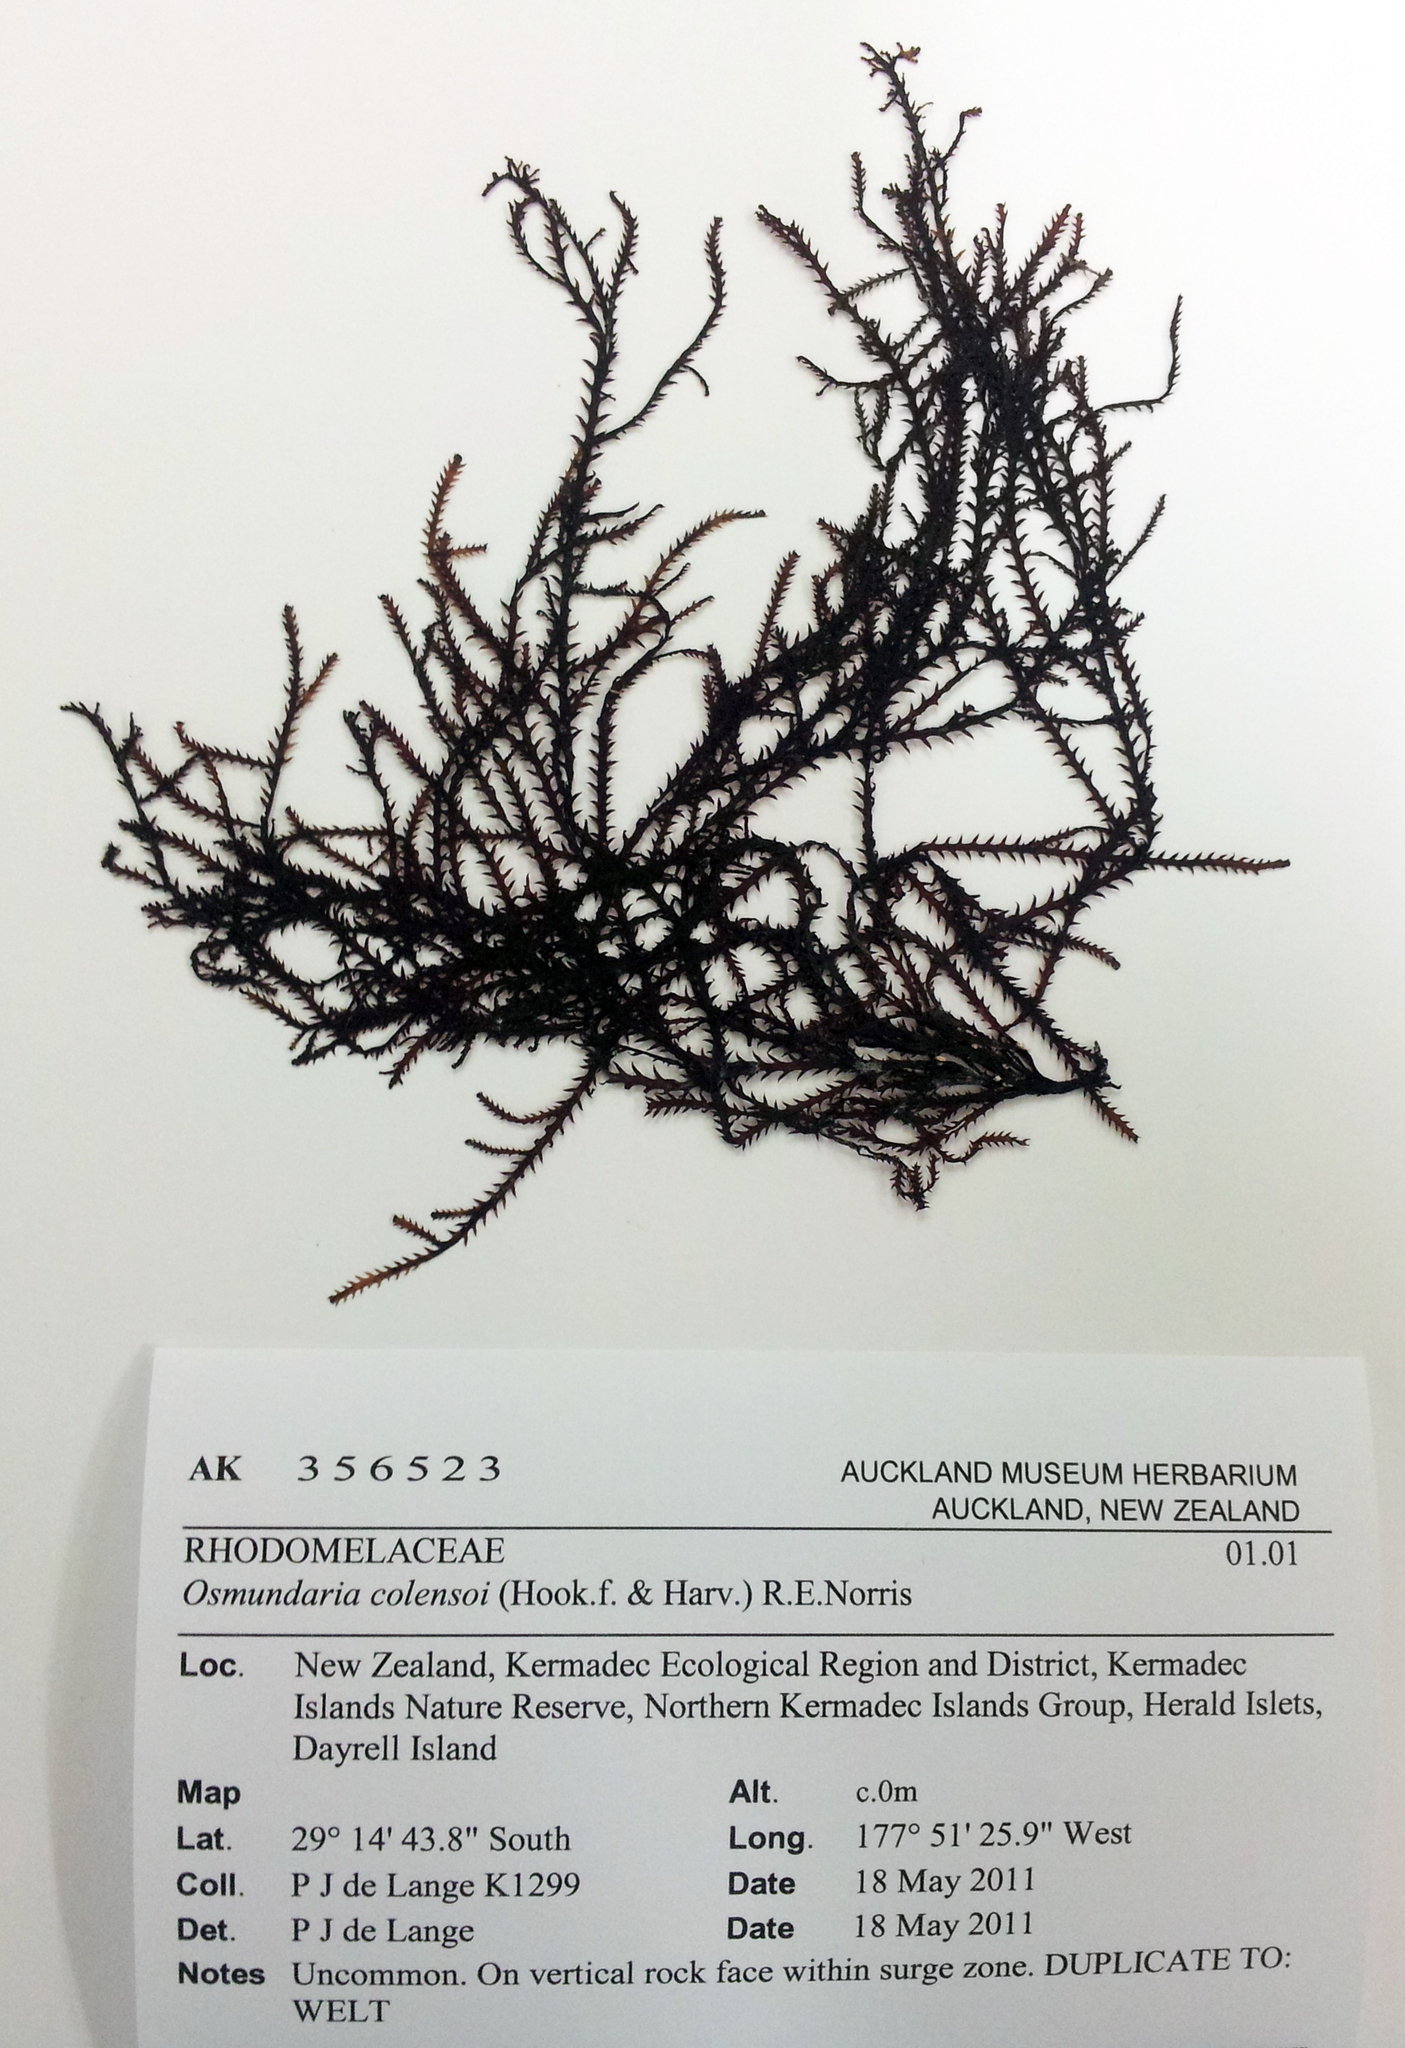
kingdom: Plantae
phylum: Rhodophyta
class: Florideophyceae
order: Ceramiales
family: Rhodomelaceae
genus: Vidalia
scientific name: Vidalia colensoi
